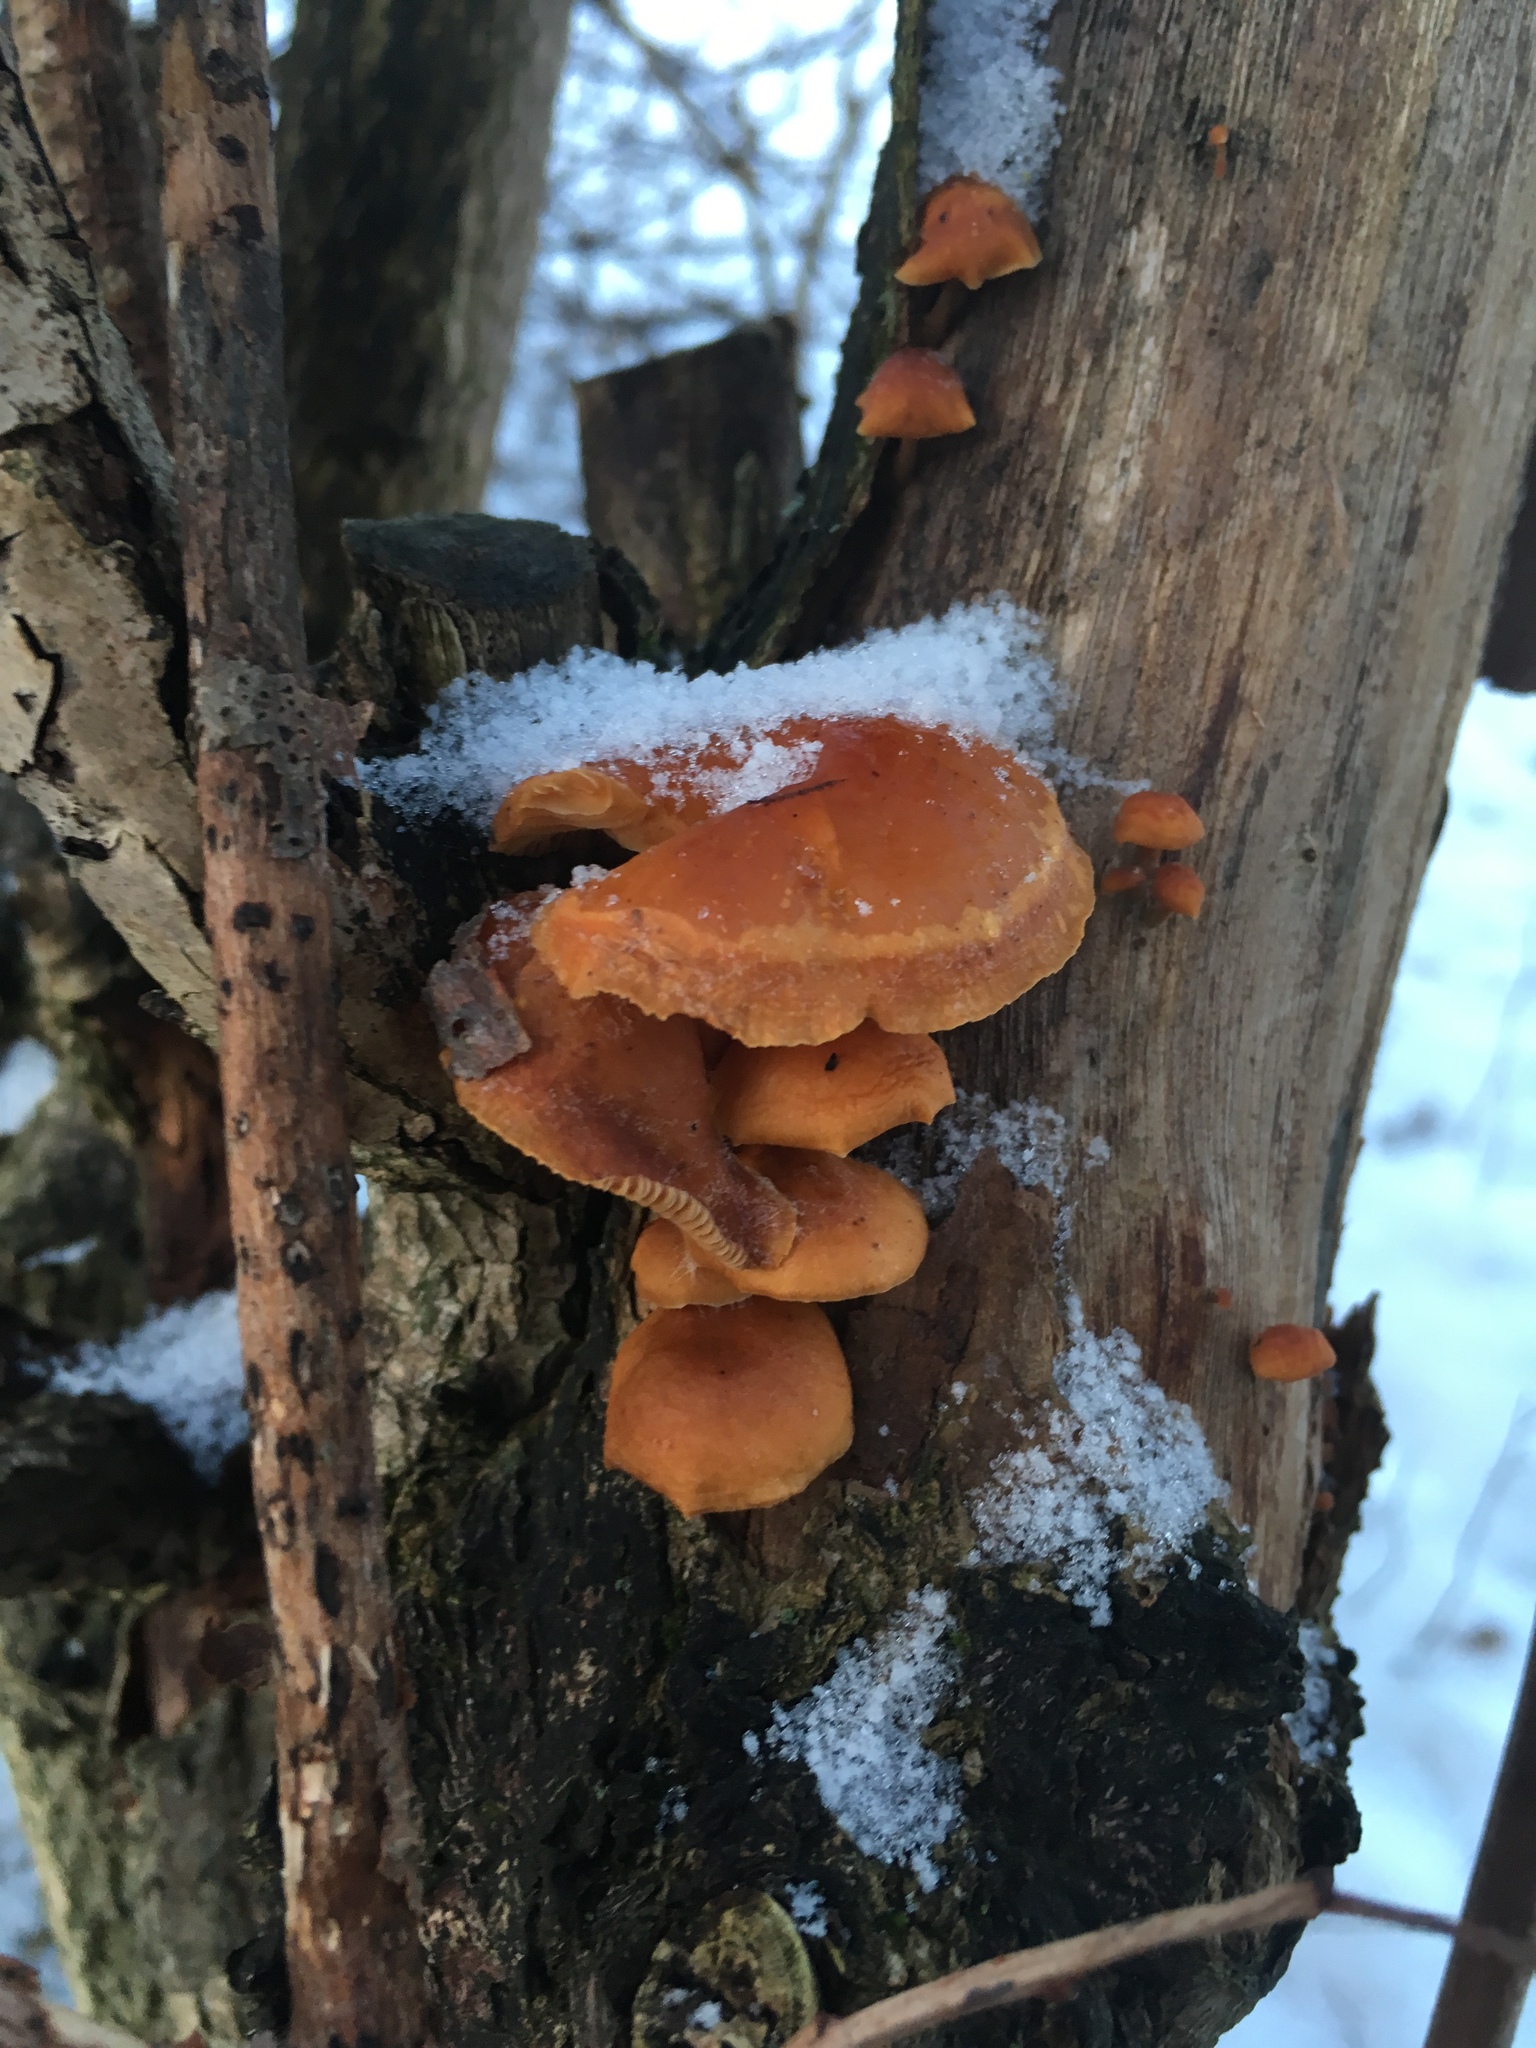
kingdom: Fungi
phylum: Basidiomycota
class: Agaricomycetes
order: Agaricales
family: Physalacriaceae
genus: Flammulina
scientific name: Flammulina
